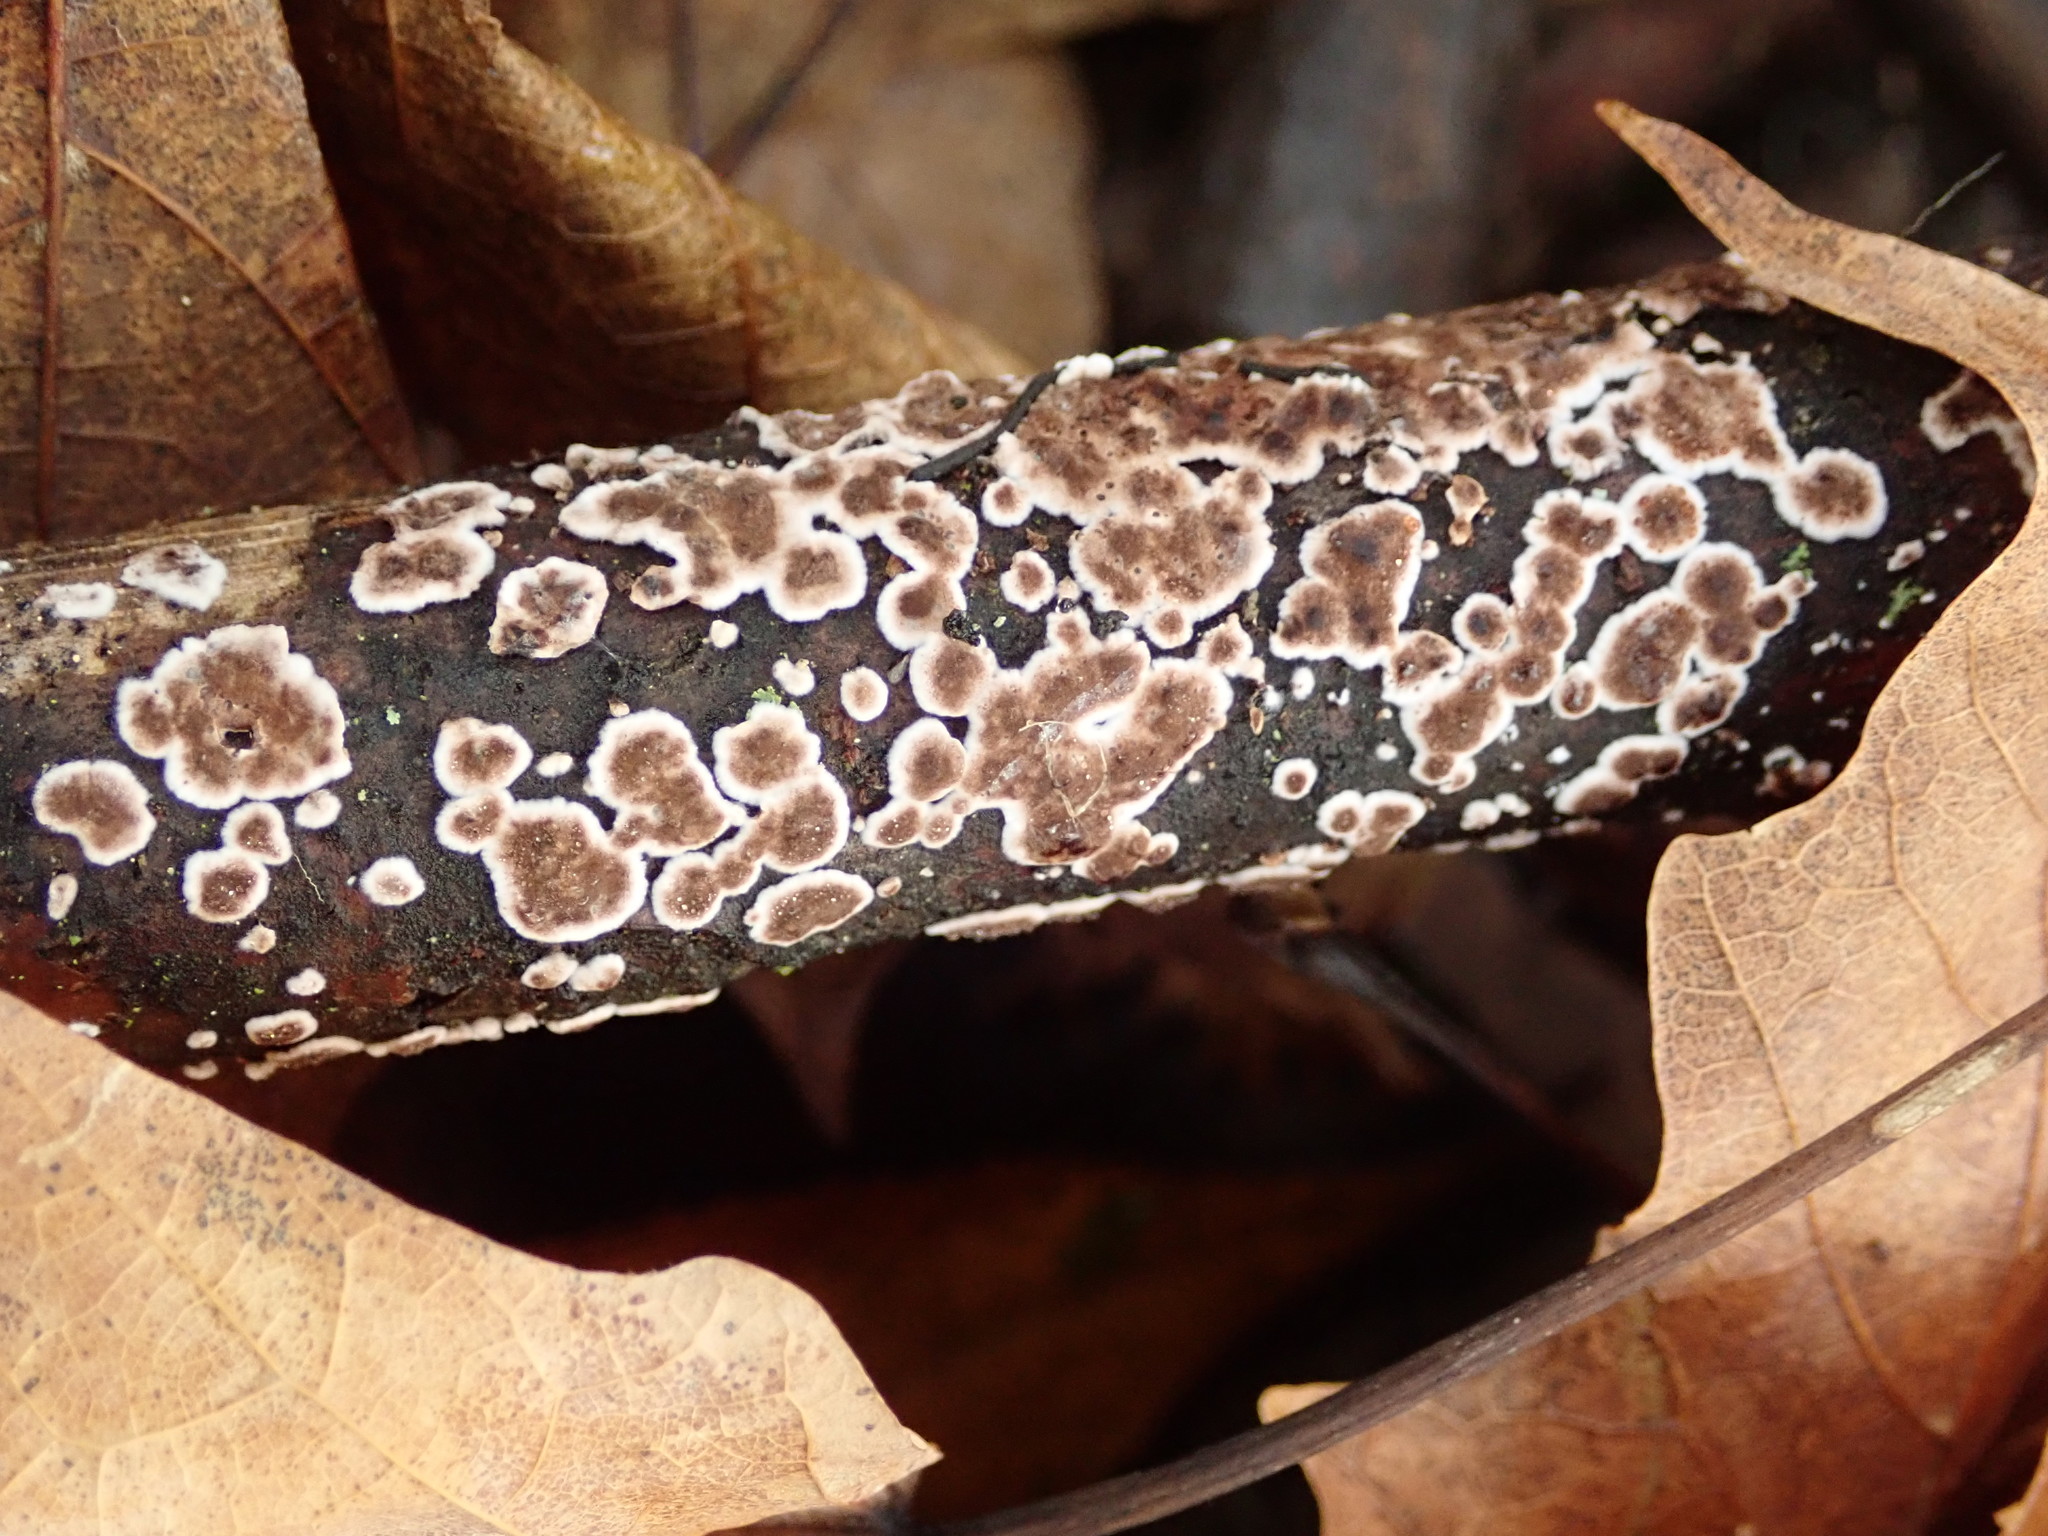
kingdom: Fungi
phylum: Basidiomycota
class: Agaricomycetes
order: Russulales
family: Peniophoraceae
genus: Peniophora
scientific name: Peniophora albobadia
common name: Giraffe spots
